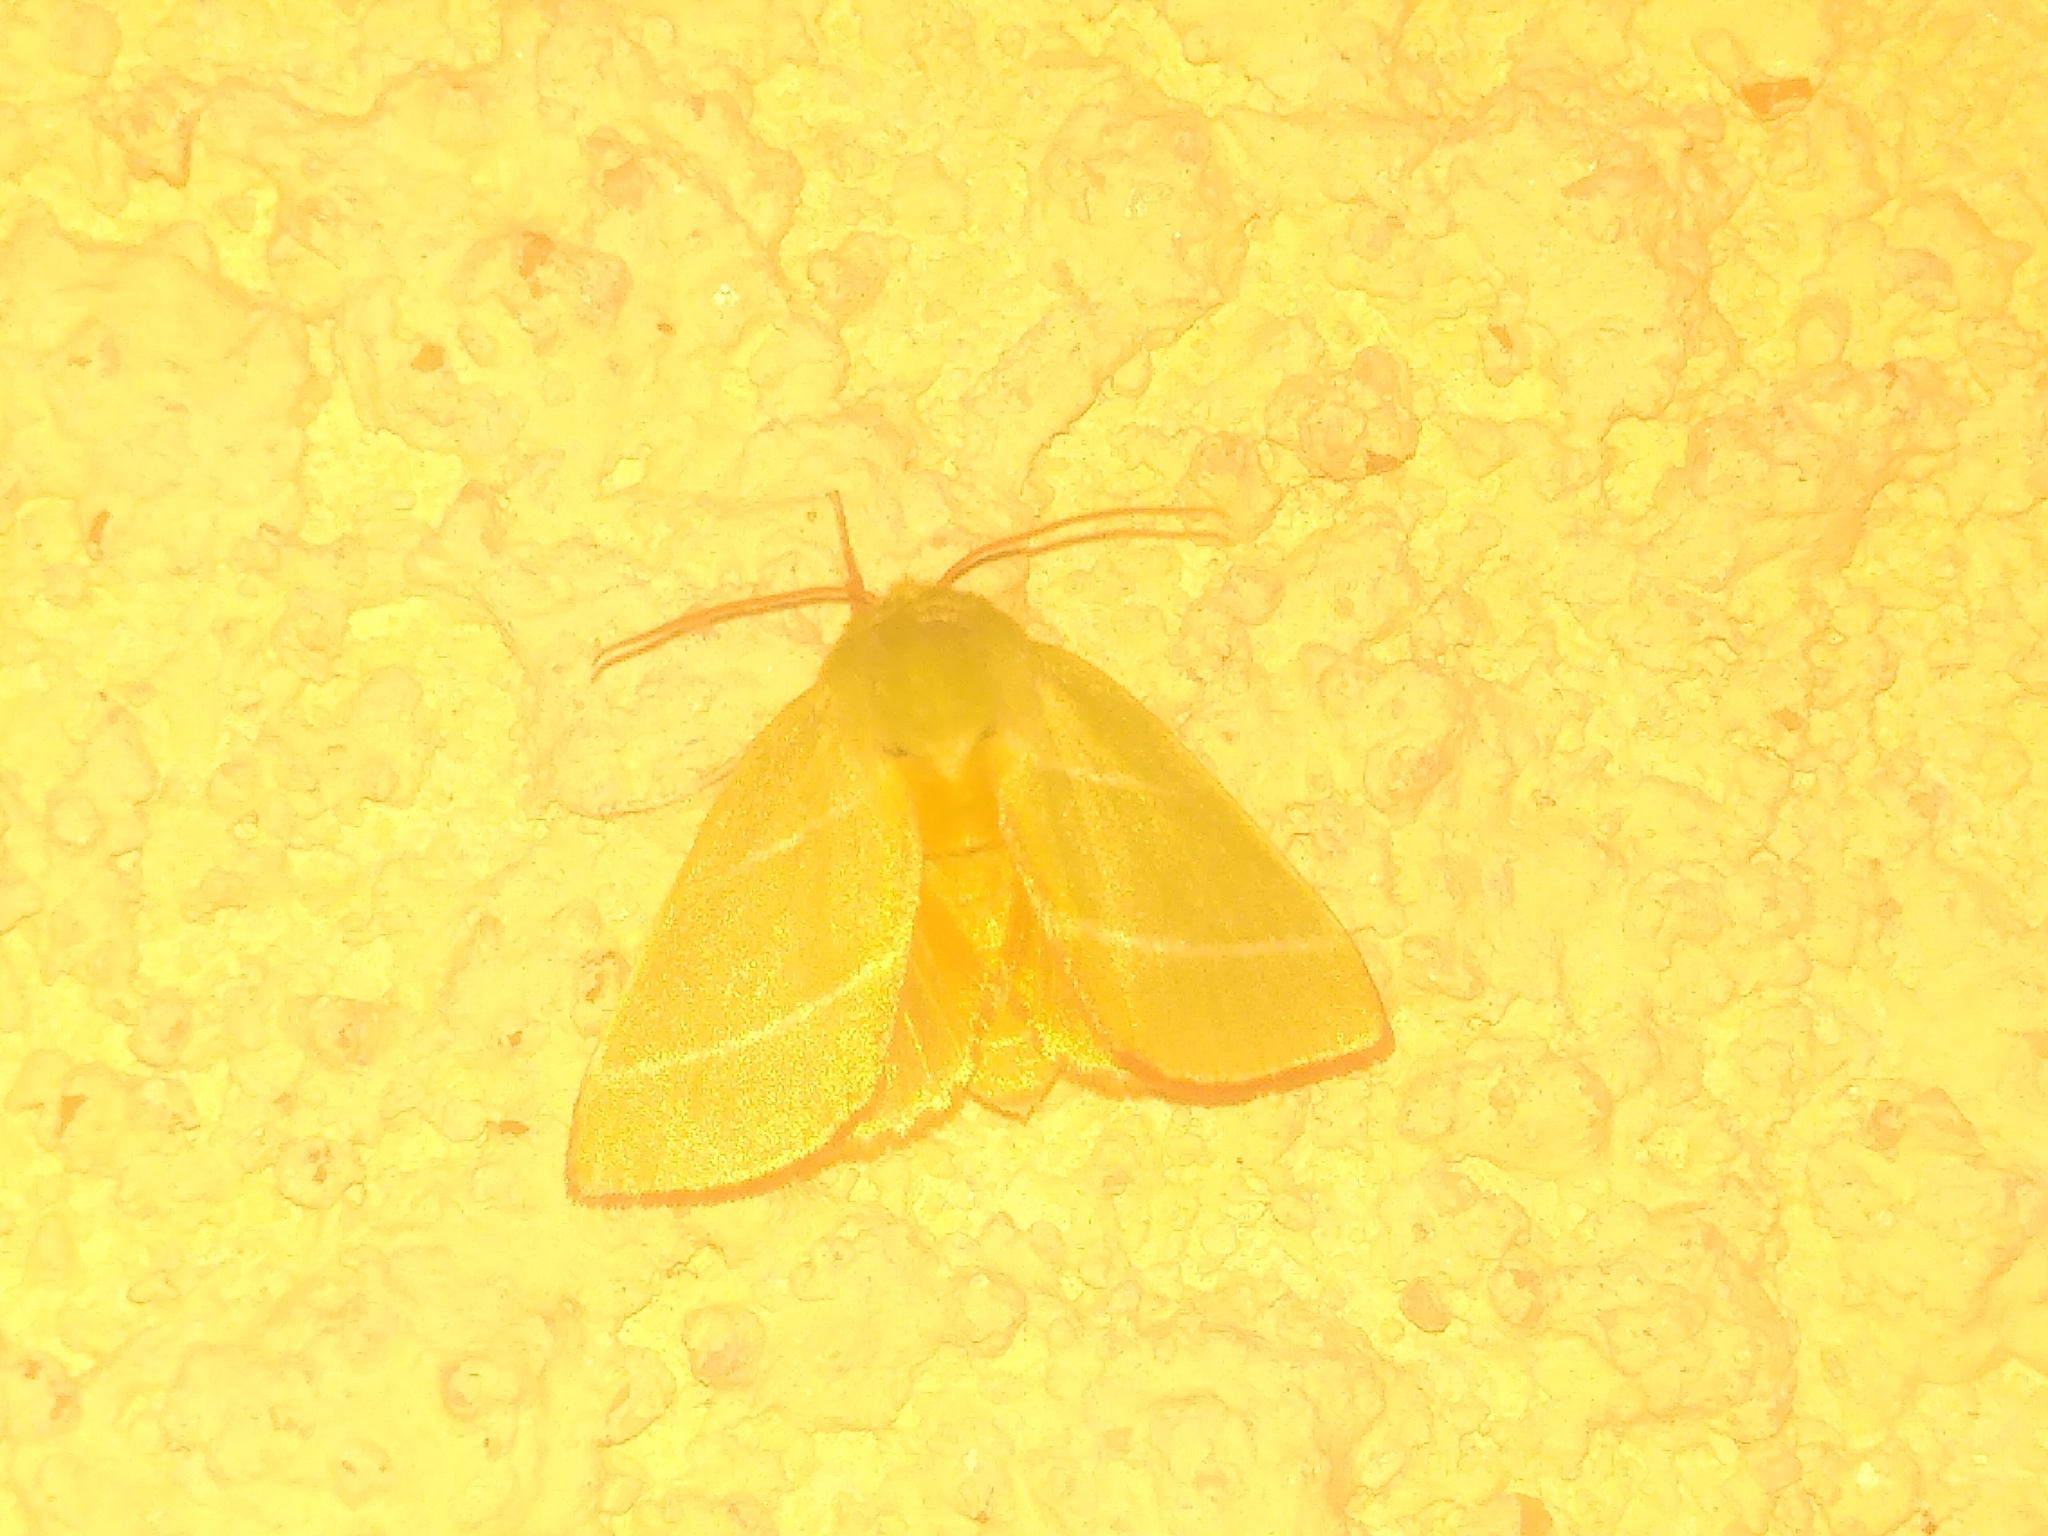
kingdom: Animalia
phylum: Arthropoda
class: Insecta
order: Lepidoptera
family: Nolidae
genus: Pseudoips
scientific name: Pseudoips prasinana
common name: Green silver-lines
